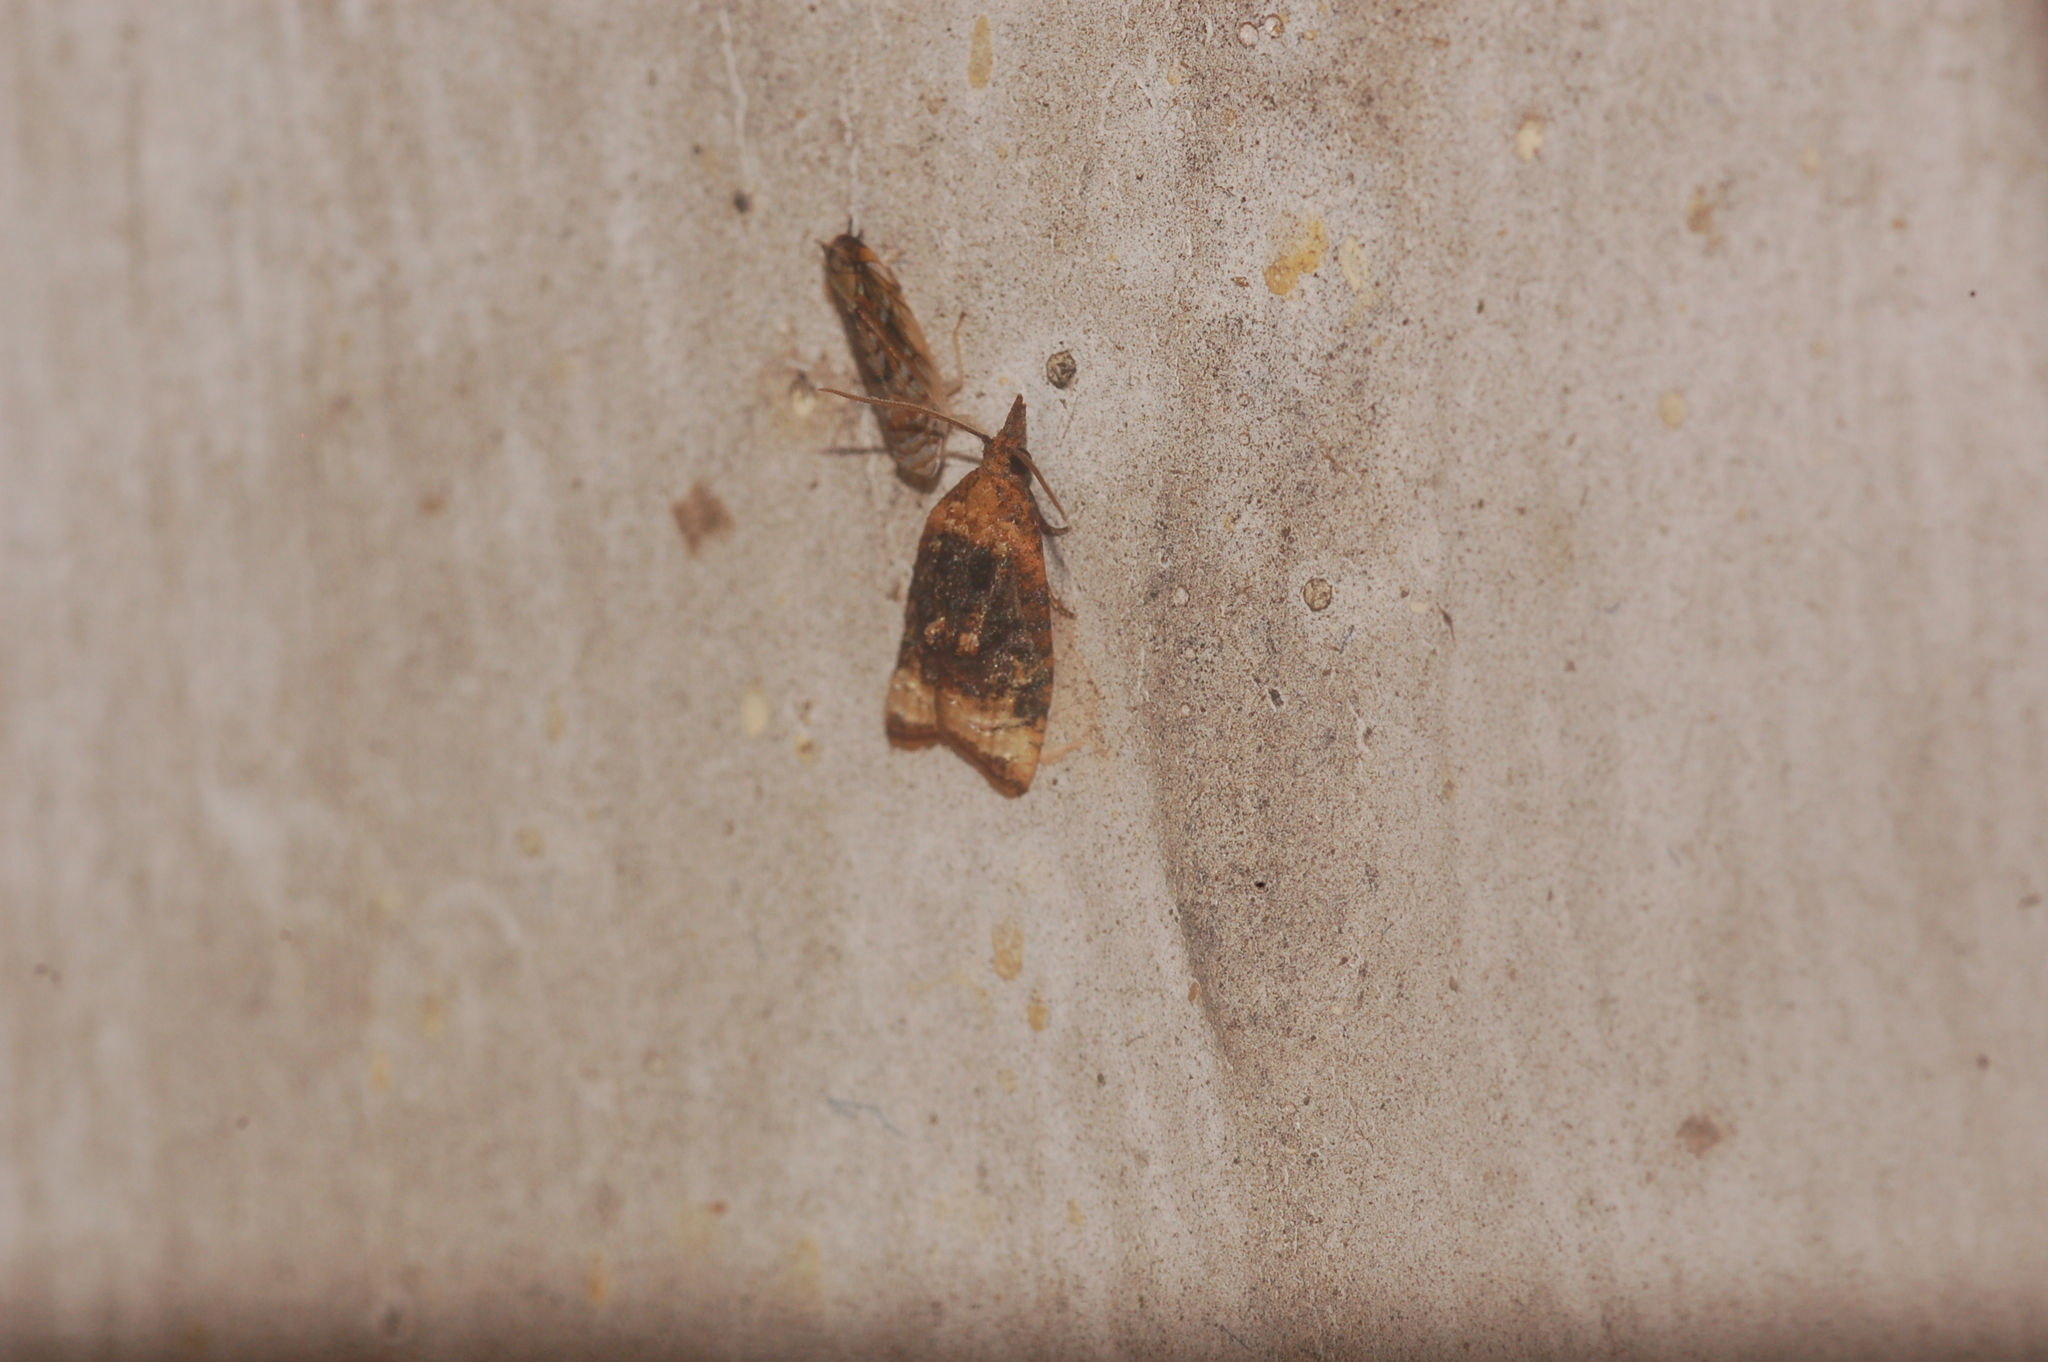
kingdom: Animalia
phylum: Arthropoda
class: Insecta
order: Lepidoptera
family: Tortricidae
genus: Platynota
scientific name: Platynota flavedana
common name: Black-shaded platynota moth
